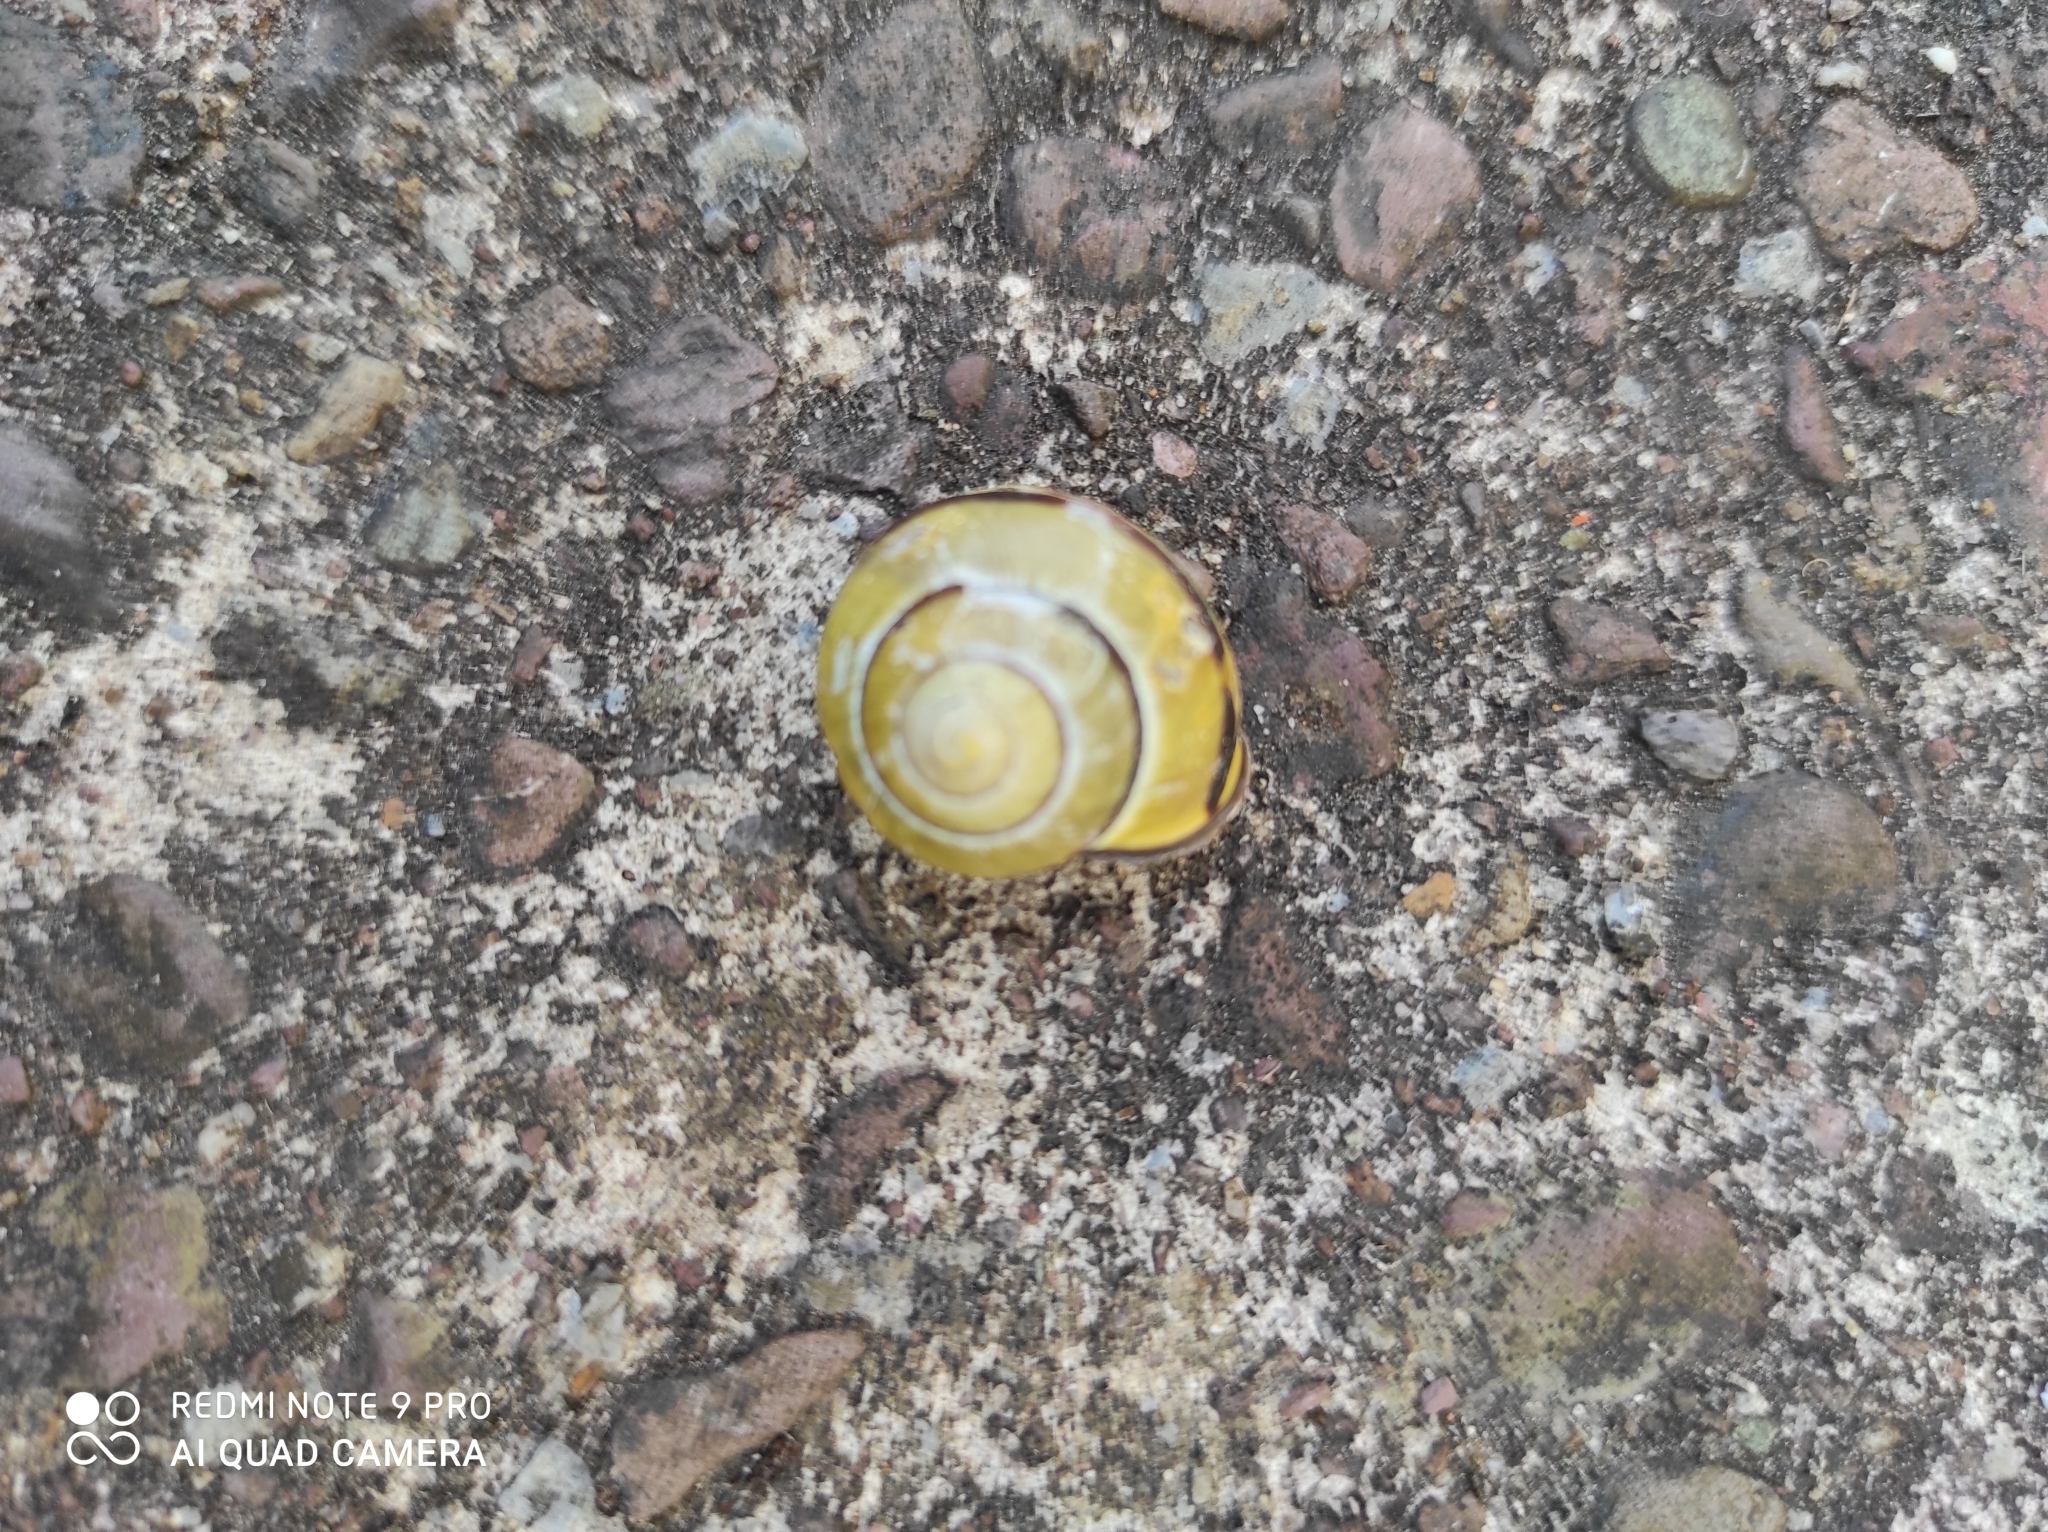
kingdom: Animalia
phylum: Mollusca
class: Gastropoda
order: Stylommatophora
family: Helicidae
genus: Cepaea
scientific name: Cepaea nemoralis
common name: Grovesnail
